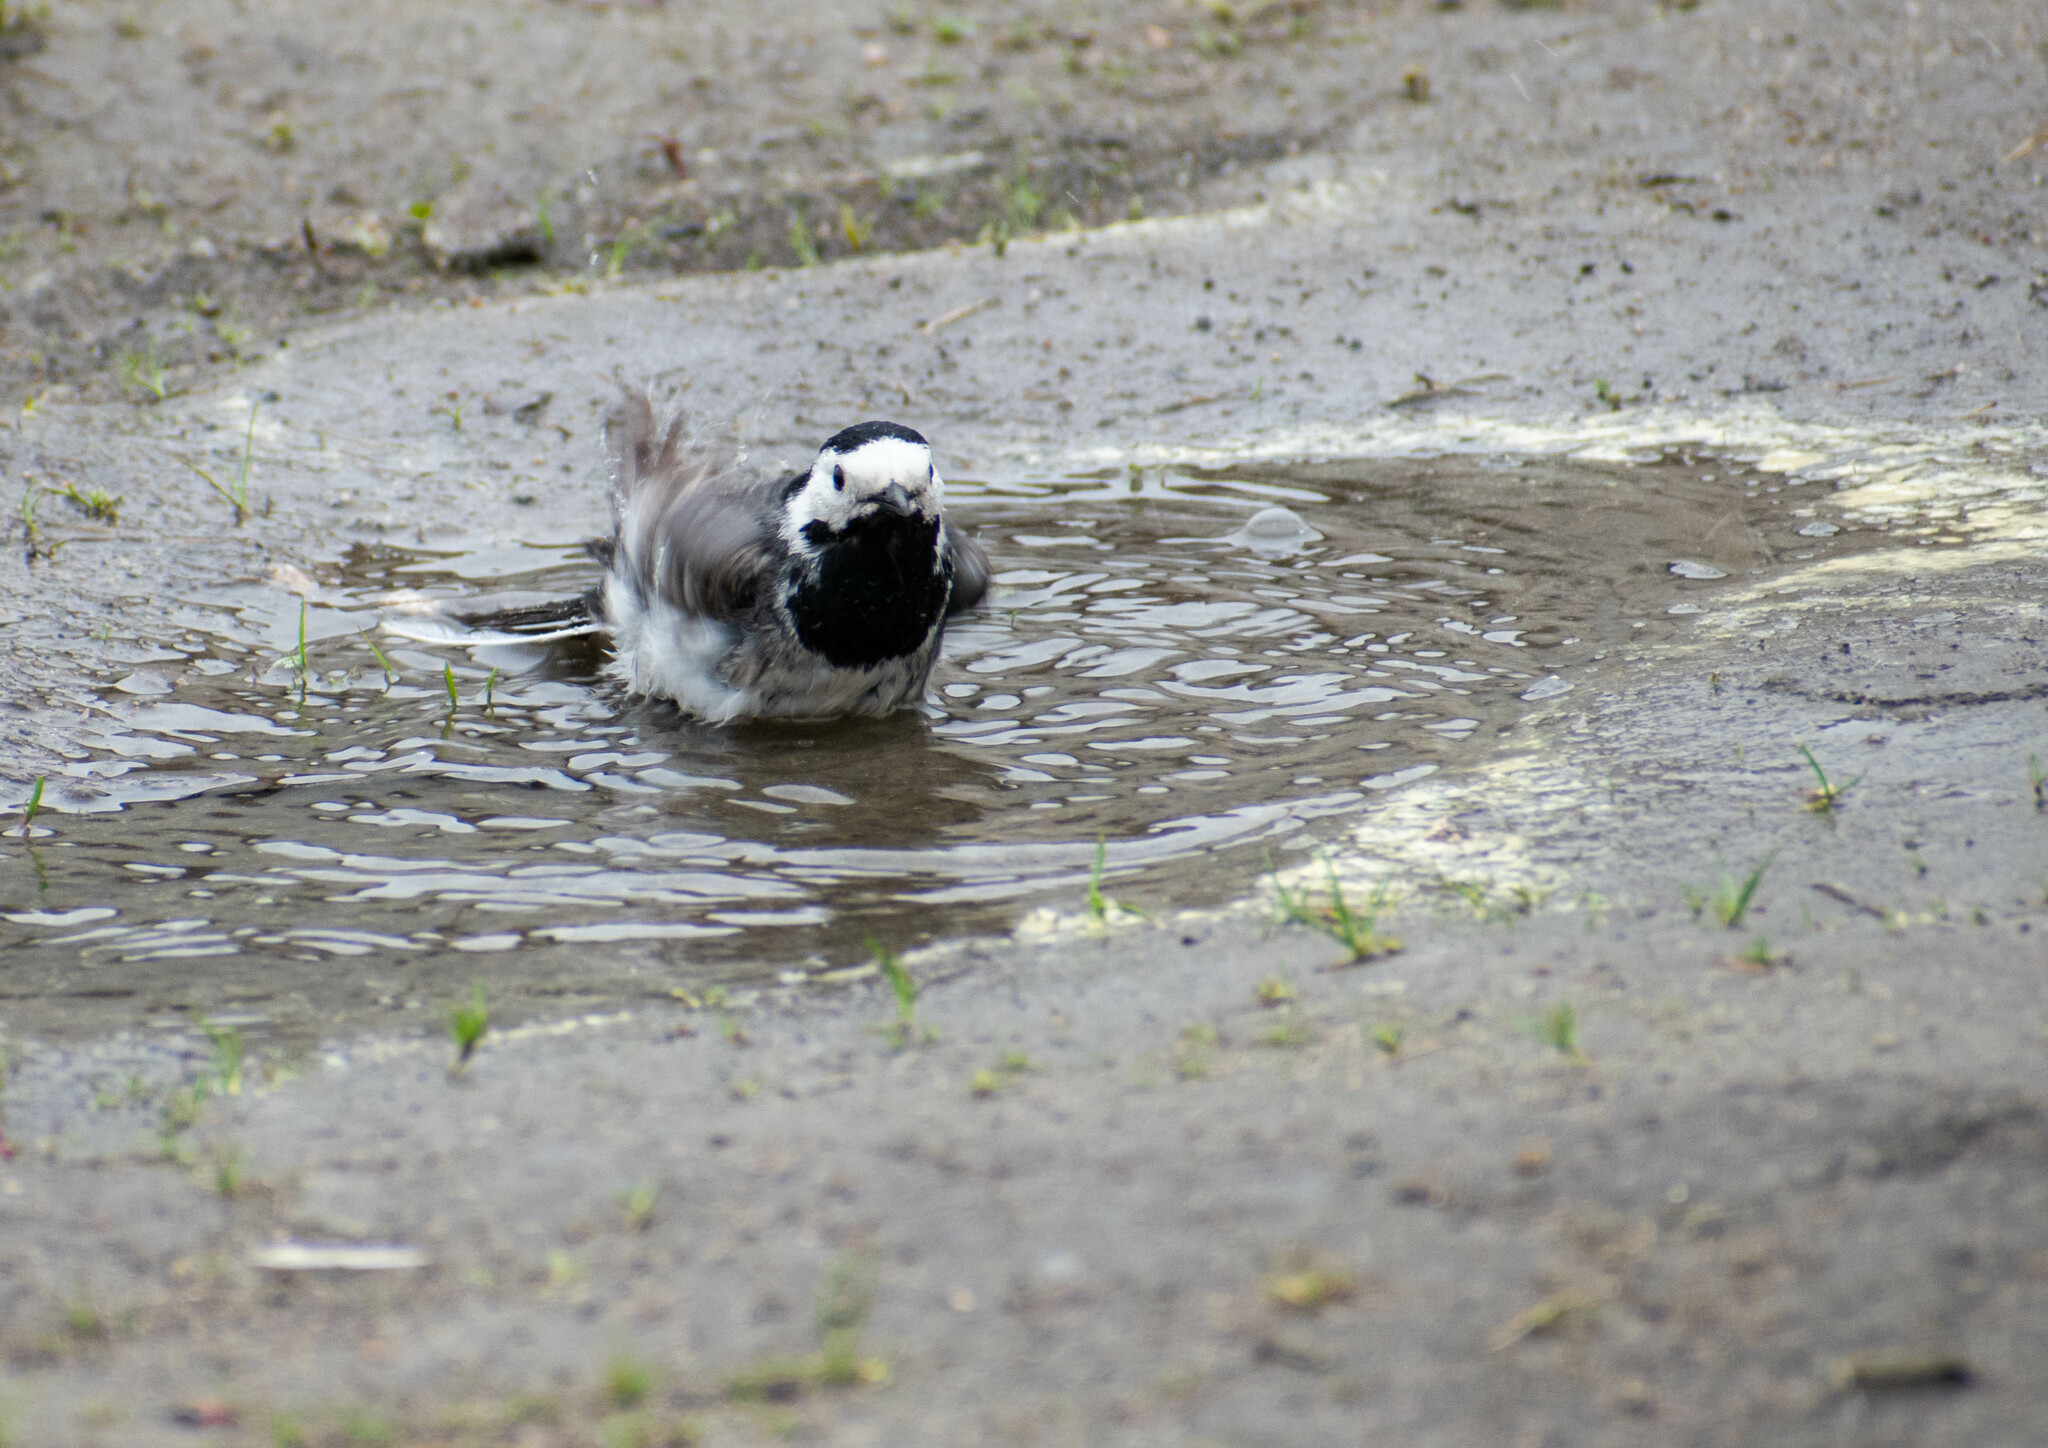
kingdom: Animalia
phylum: Chordata
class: Aves
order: Passeriformes
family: Motacillidae
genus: Motacilla
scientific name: Motacilla alba
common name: White wagtail
